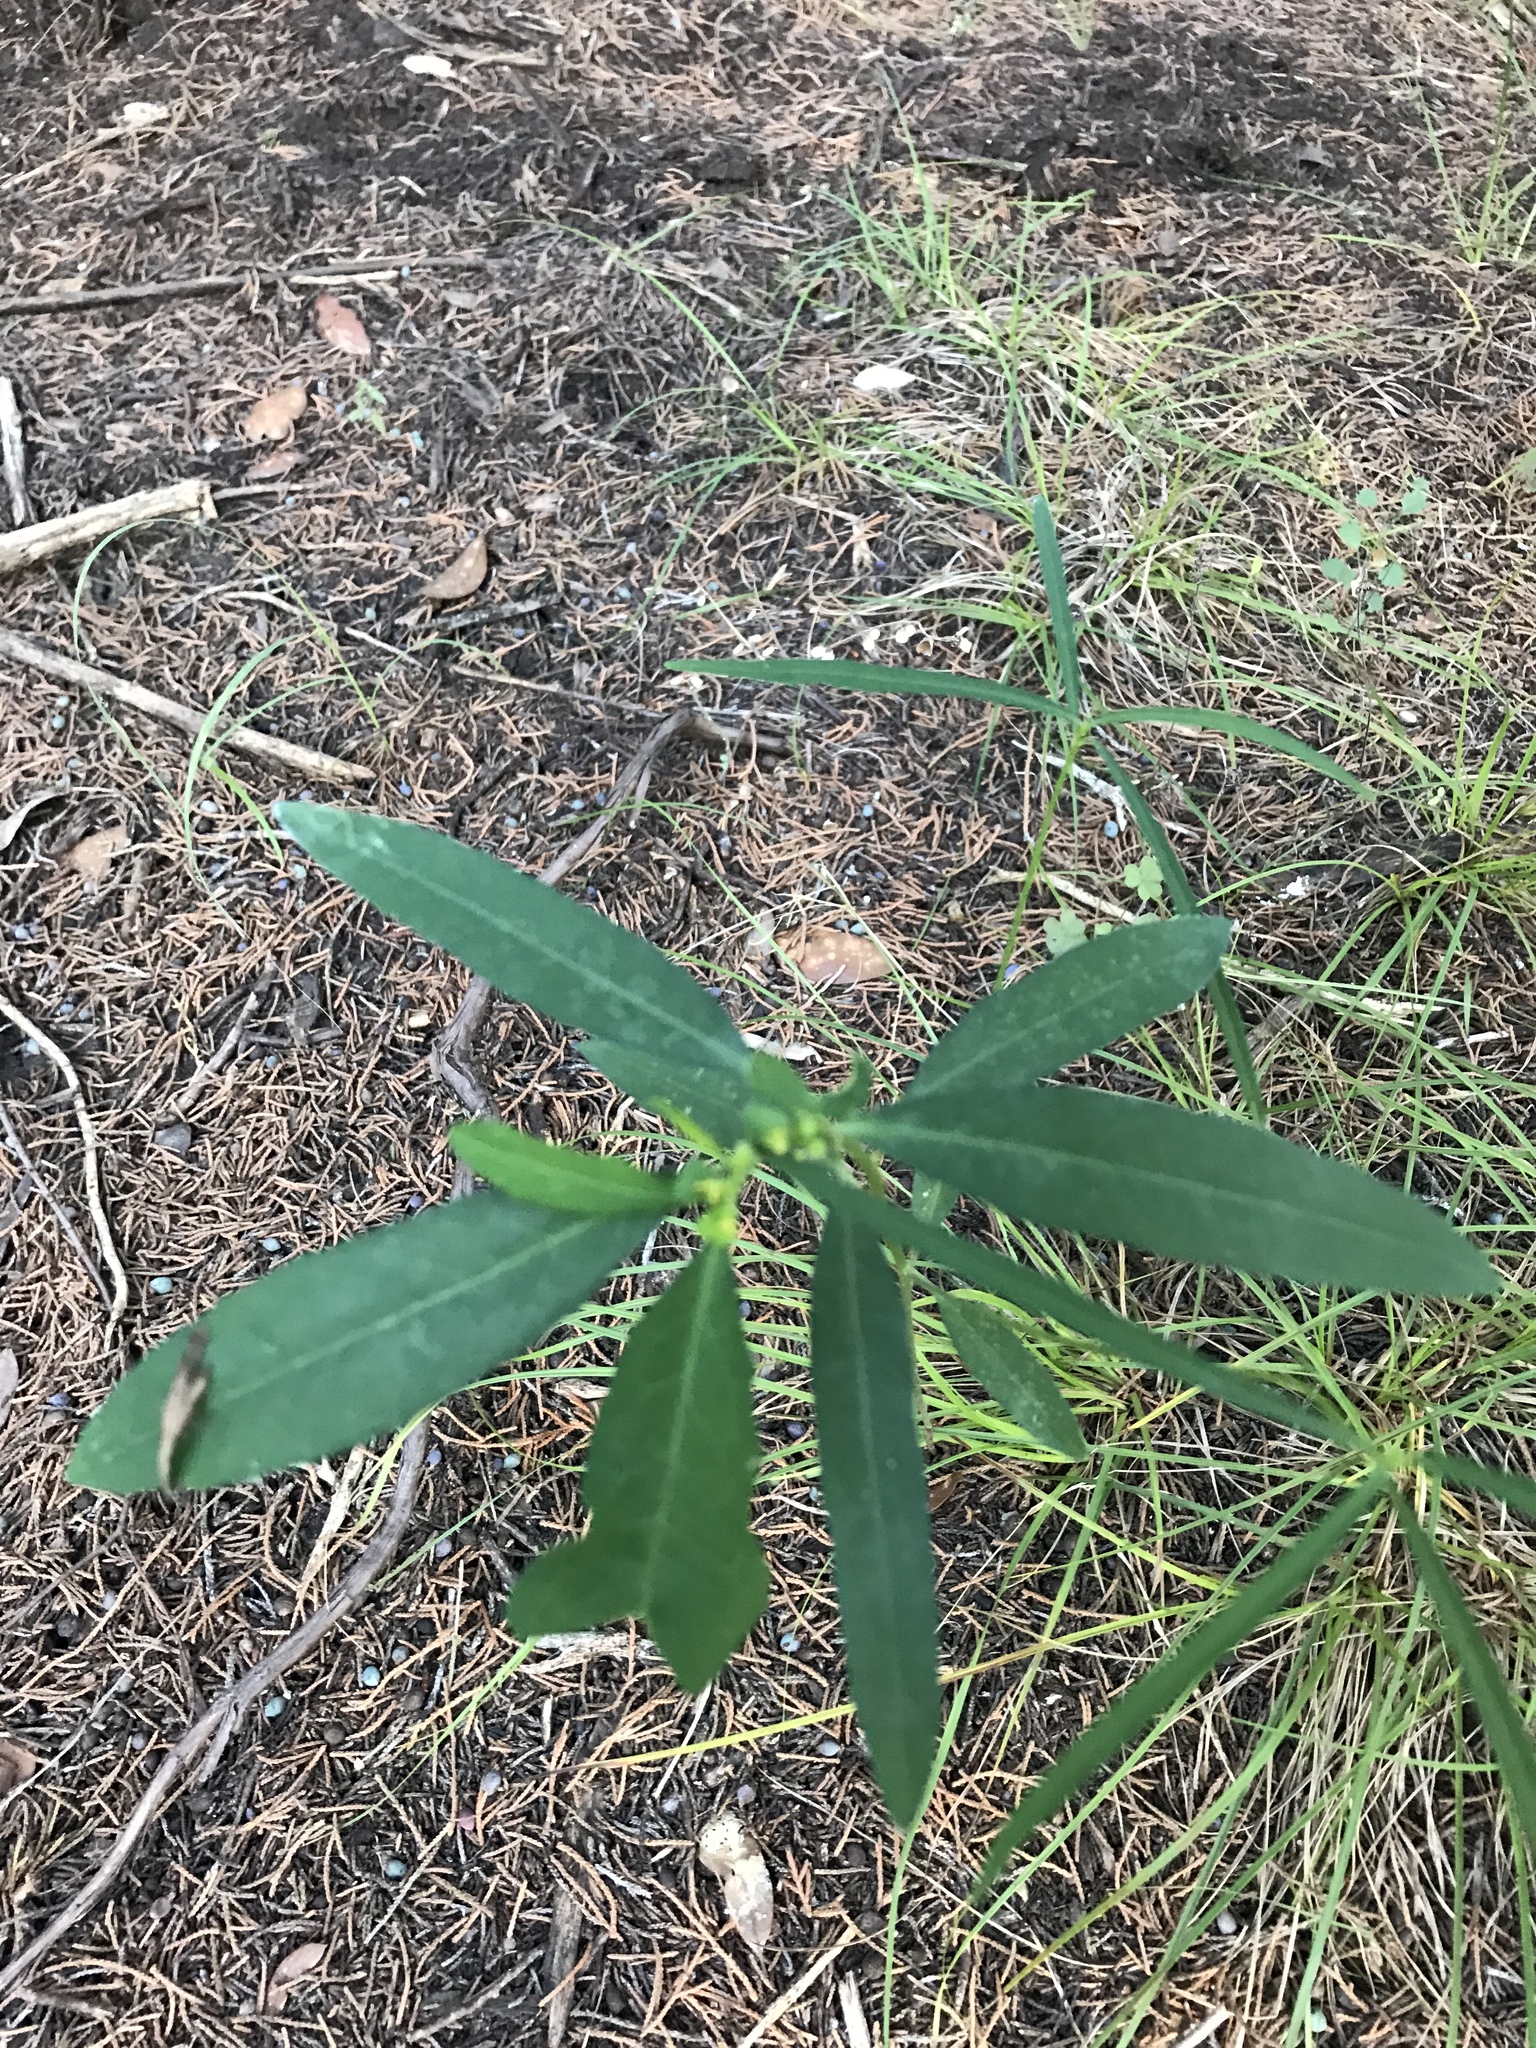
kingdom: Plantae
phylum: Tracheophyta
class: Magnoliopsida
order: Malpighiales
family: Euphorbiaceae
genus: Euphorbia
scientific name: Euphorbia heterophylla
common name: Mexican fireplant
